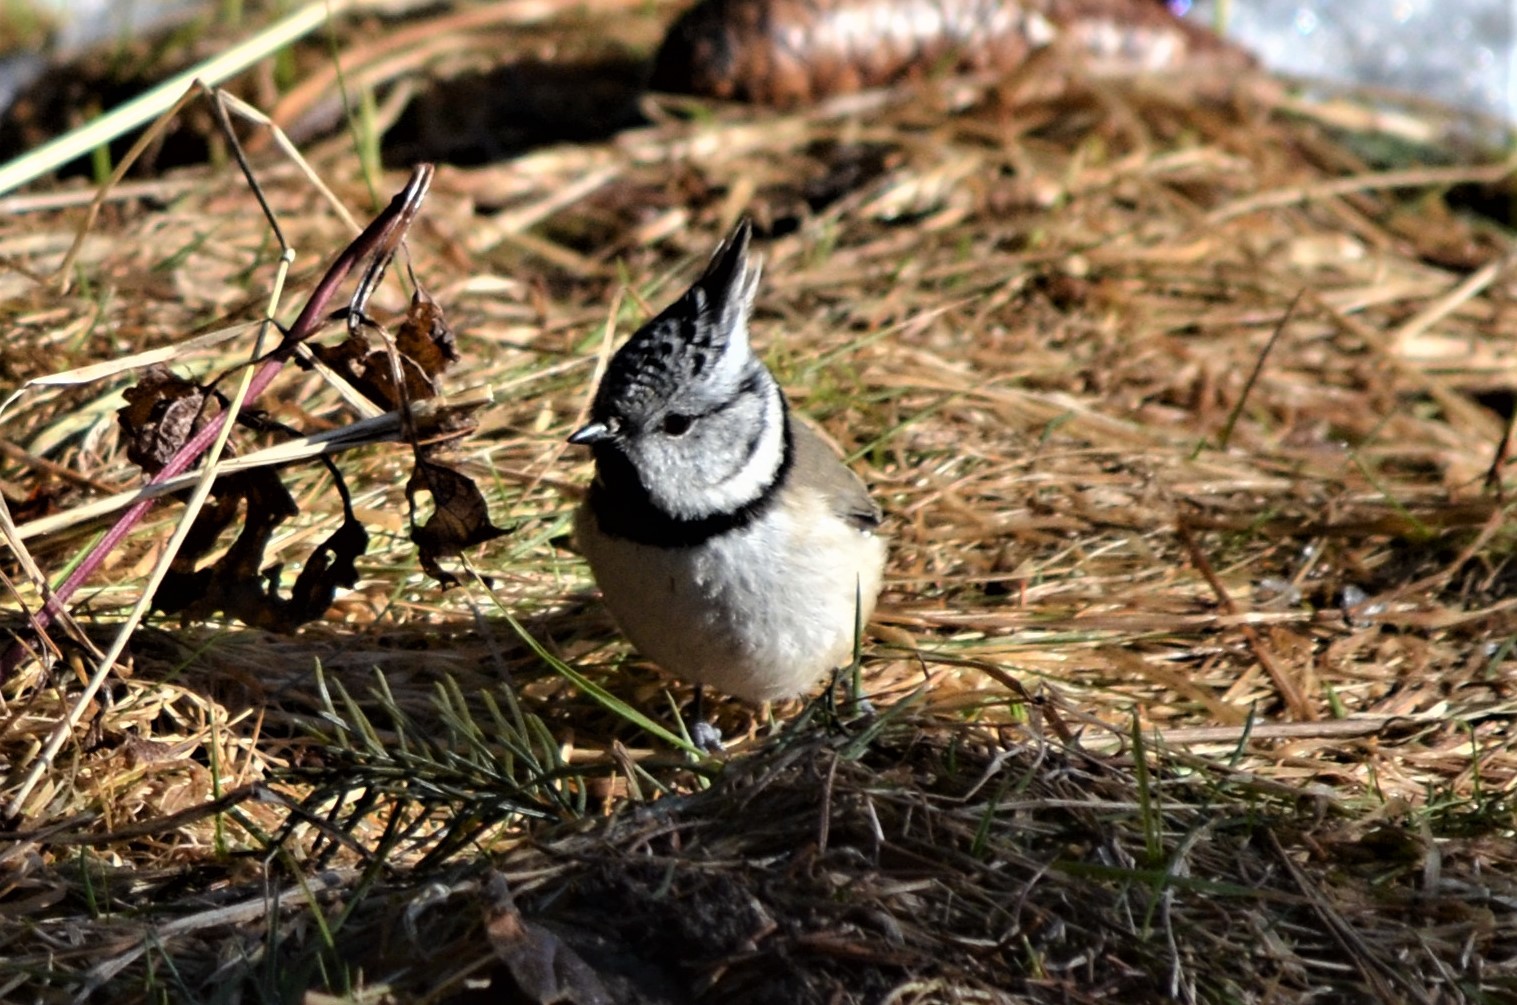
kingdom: Animalia
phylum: Chordata
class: Aves
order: Passeriformes
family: Paridae
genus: Lophophanes
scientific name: Lophophanes cristatus
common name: European crested tit
